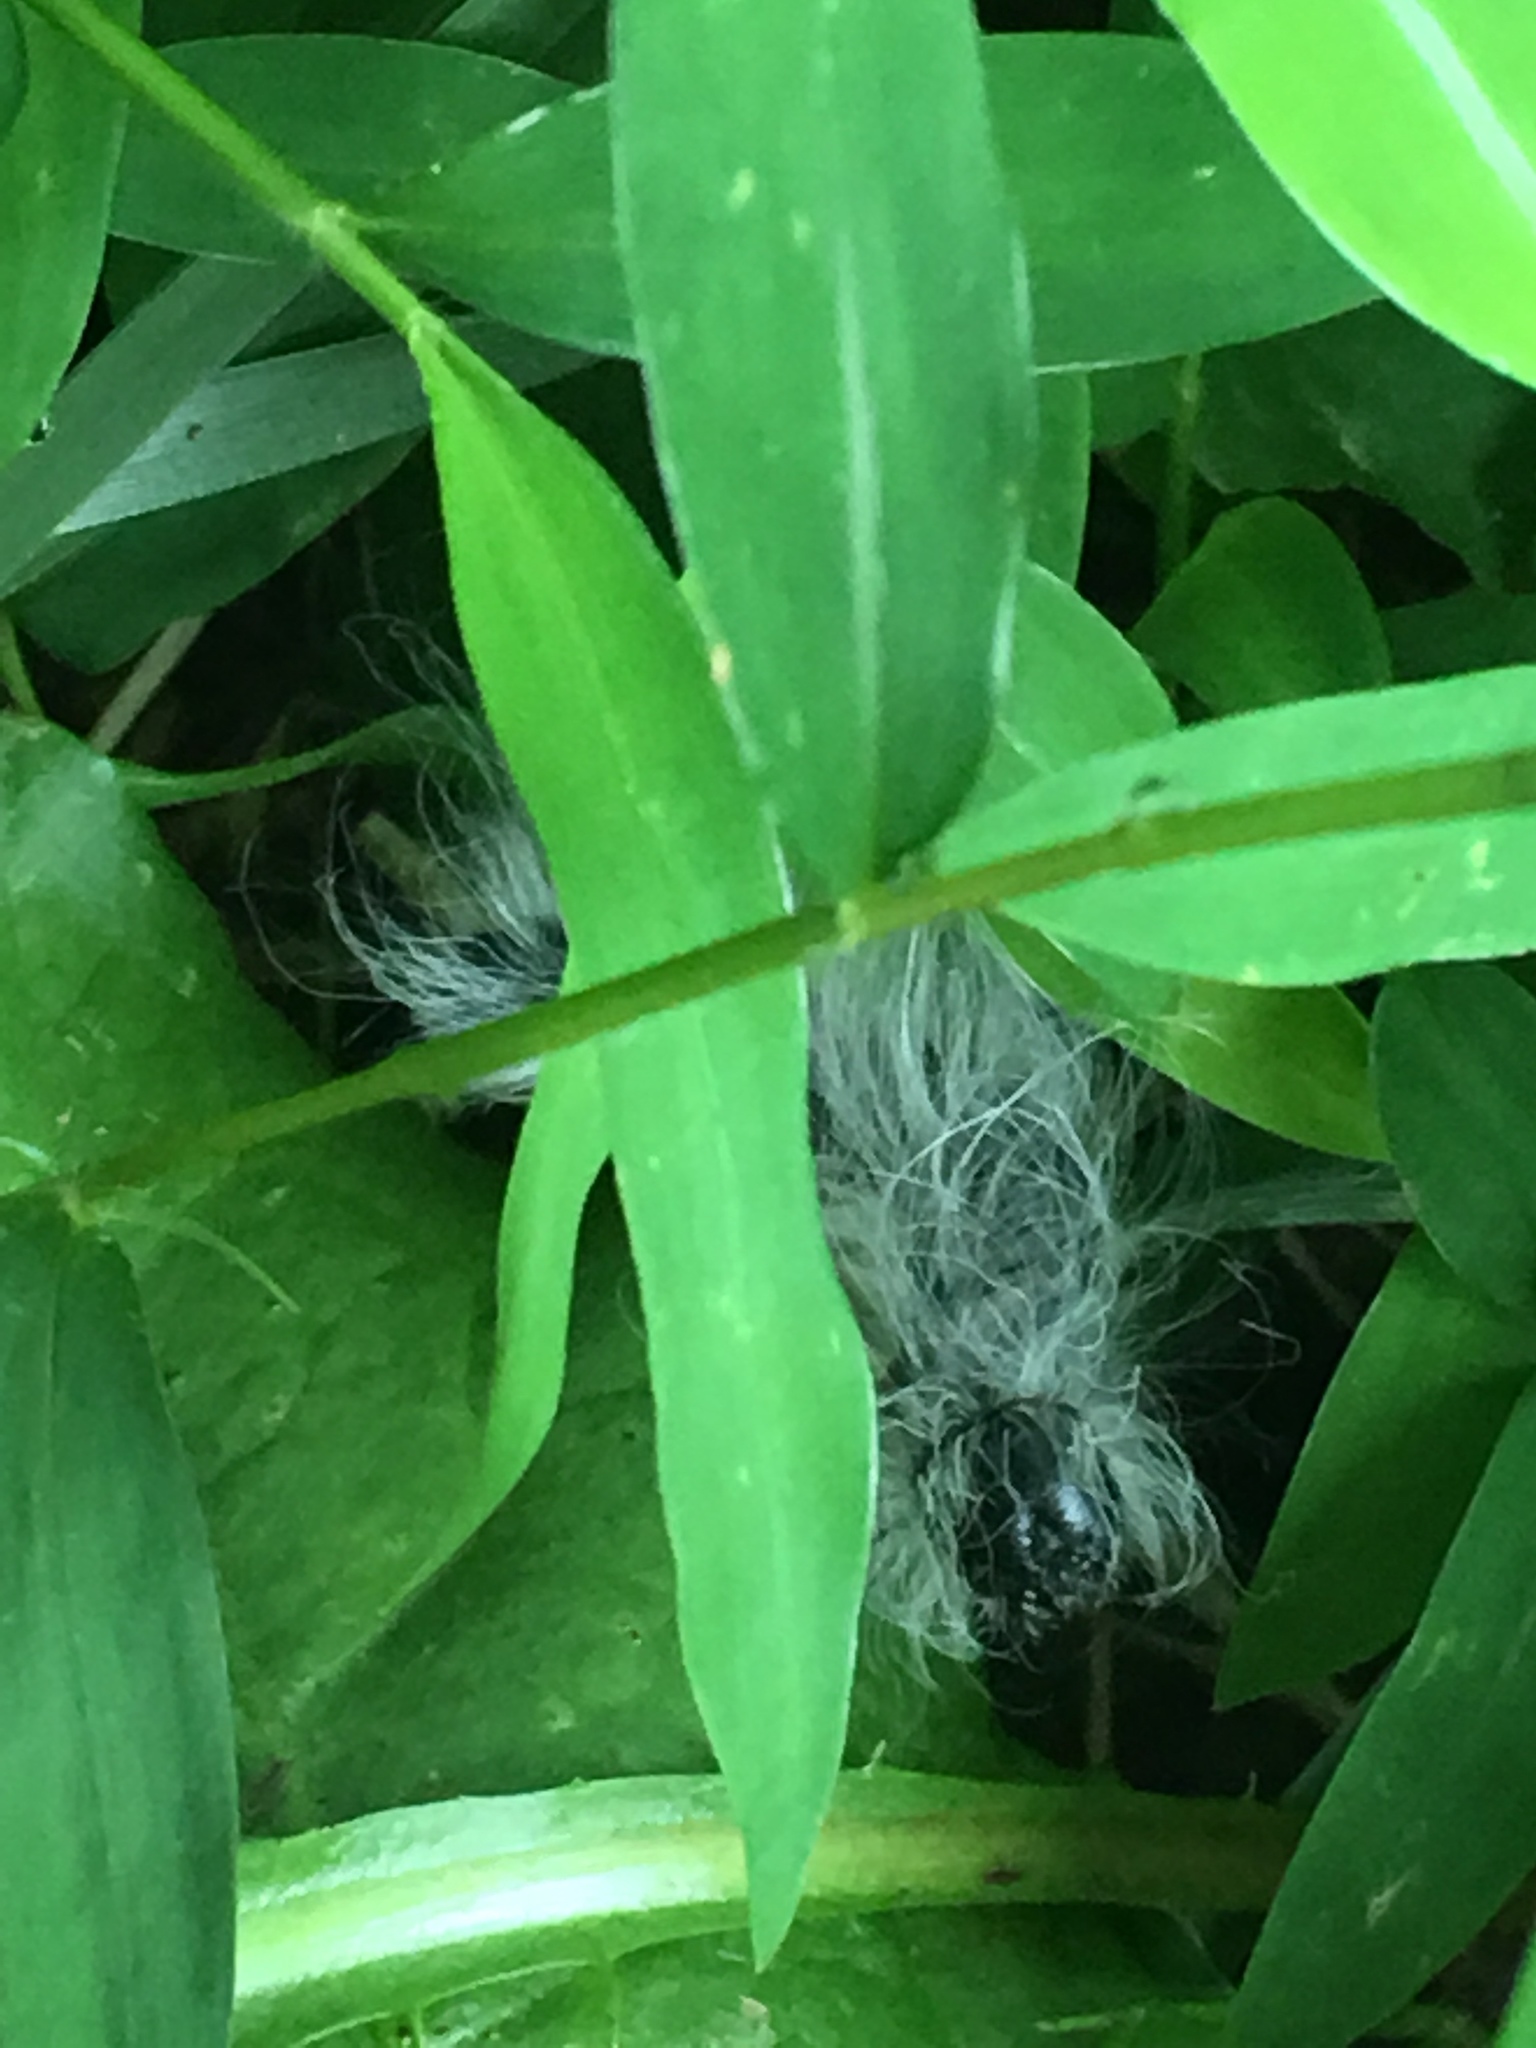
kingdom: Animalia
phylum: Arthropoda
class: Insecta
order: Lepidoptera
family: Notodontidae
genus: Datana
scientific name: Datana integerrima
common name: Walnut caterpillar
